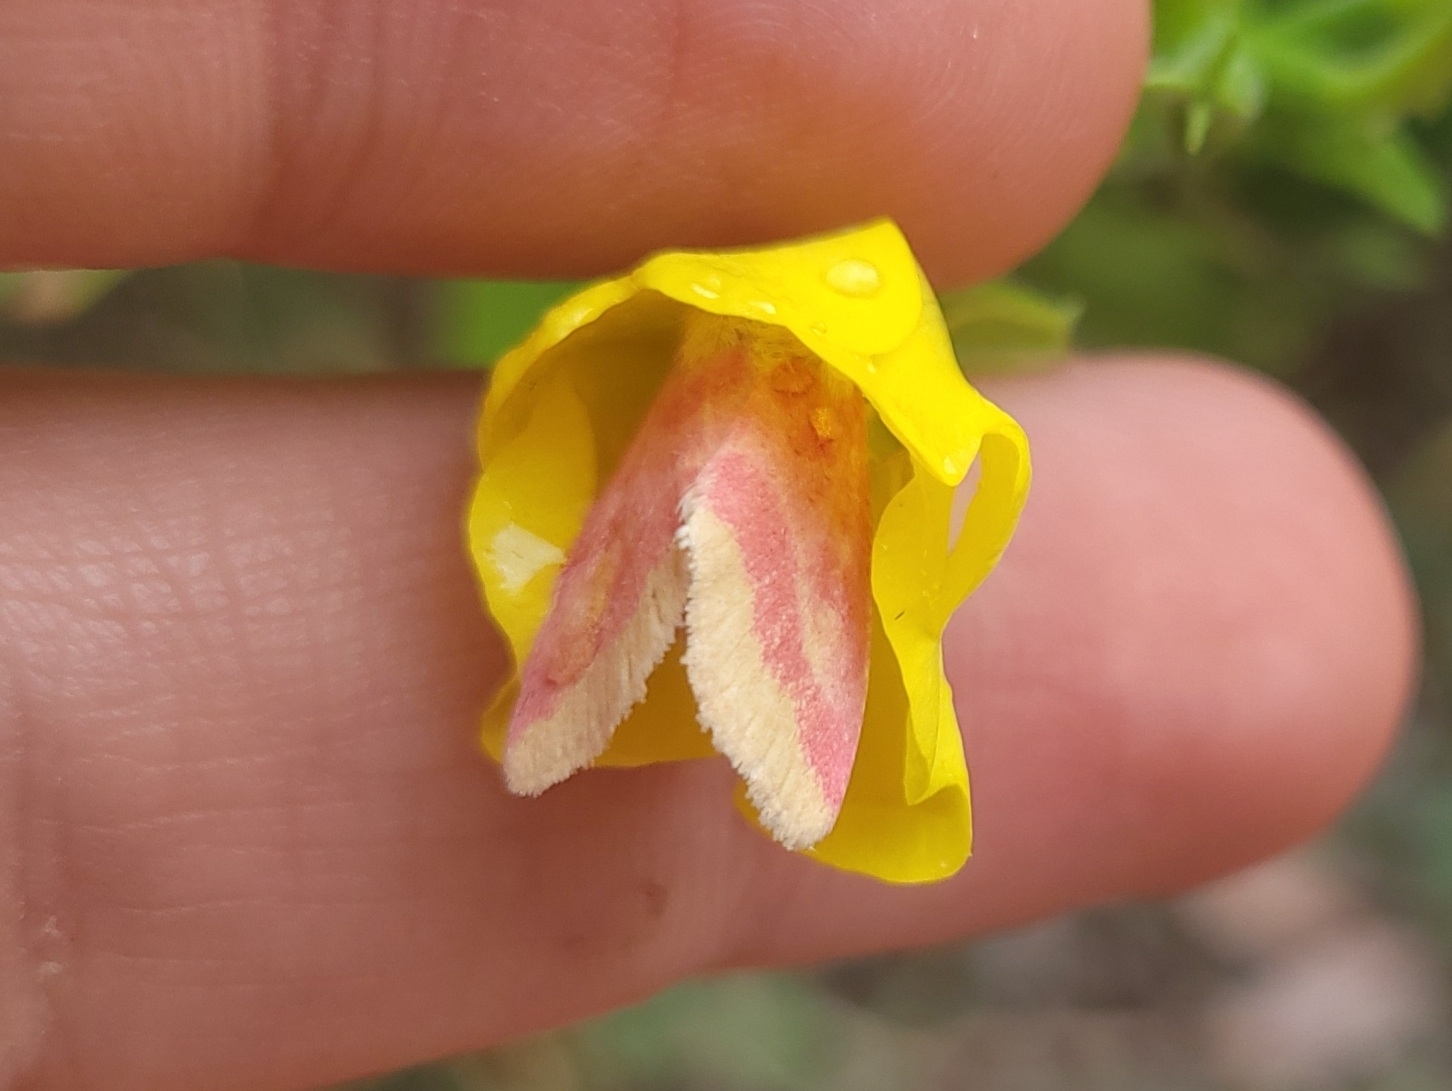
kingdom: Animalia
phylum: Arthropoda
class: Insecta
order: Lepidoptera
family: Noctuidae
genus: Schinia
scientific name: Schinia florida
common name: Primrose moth
